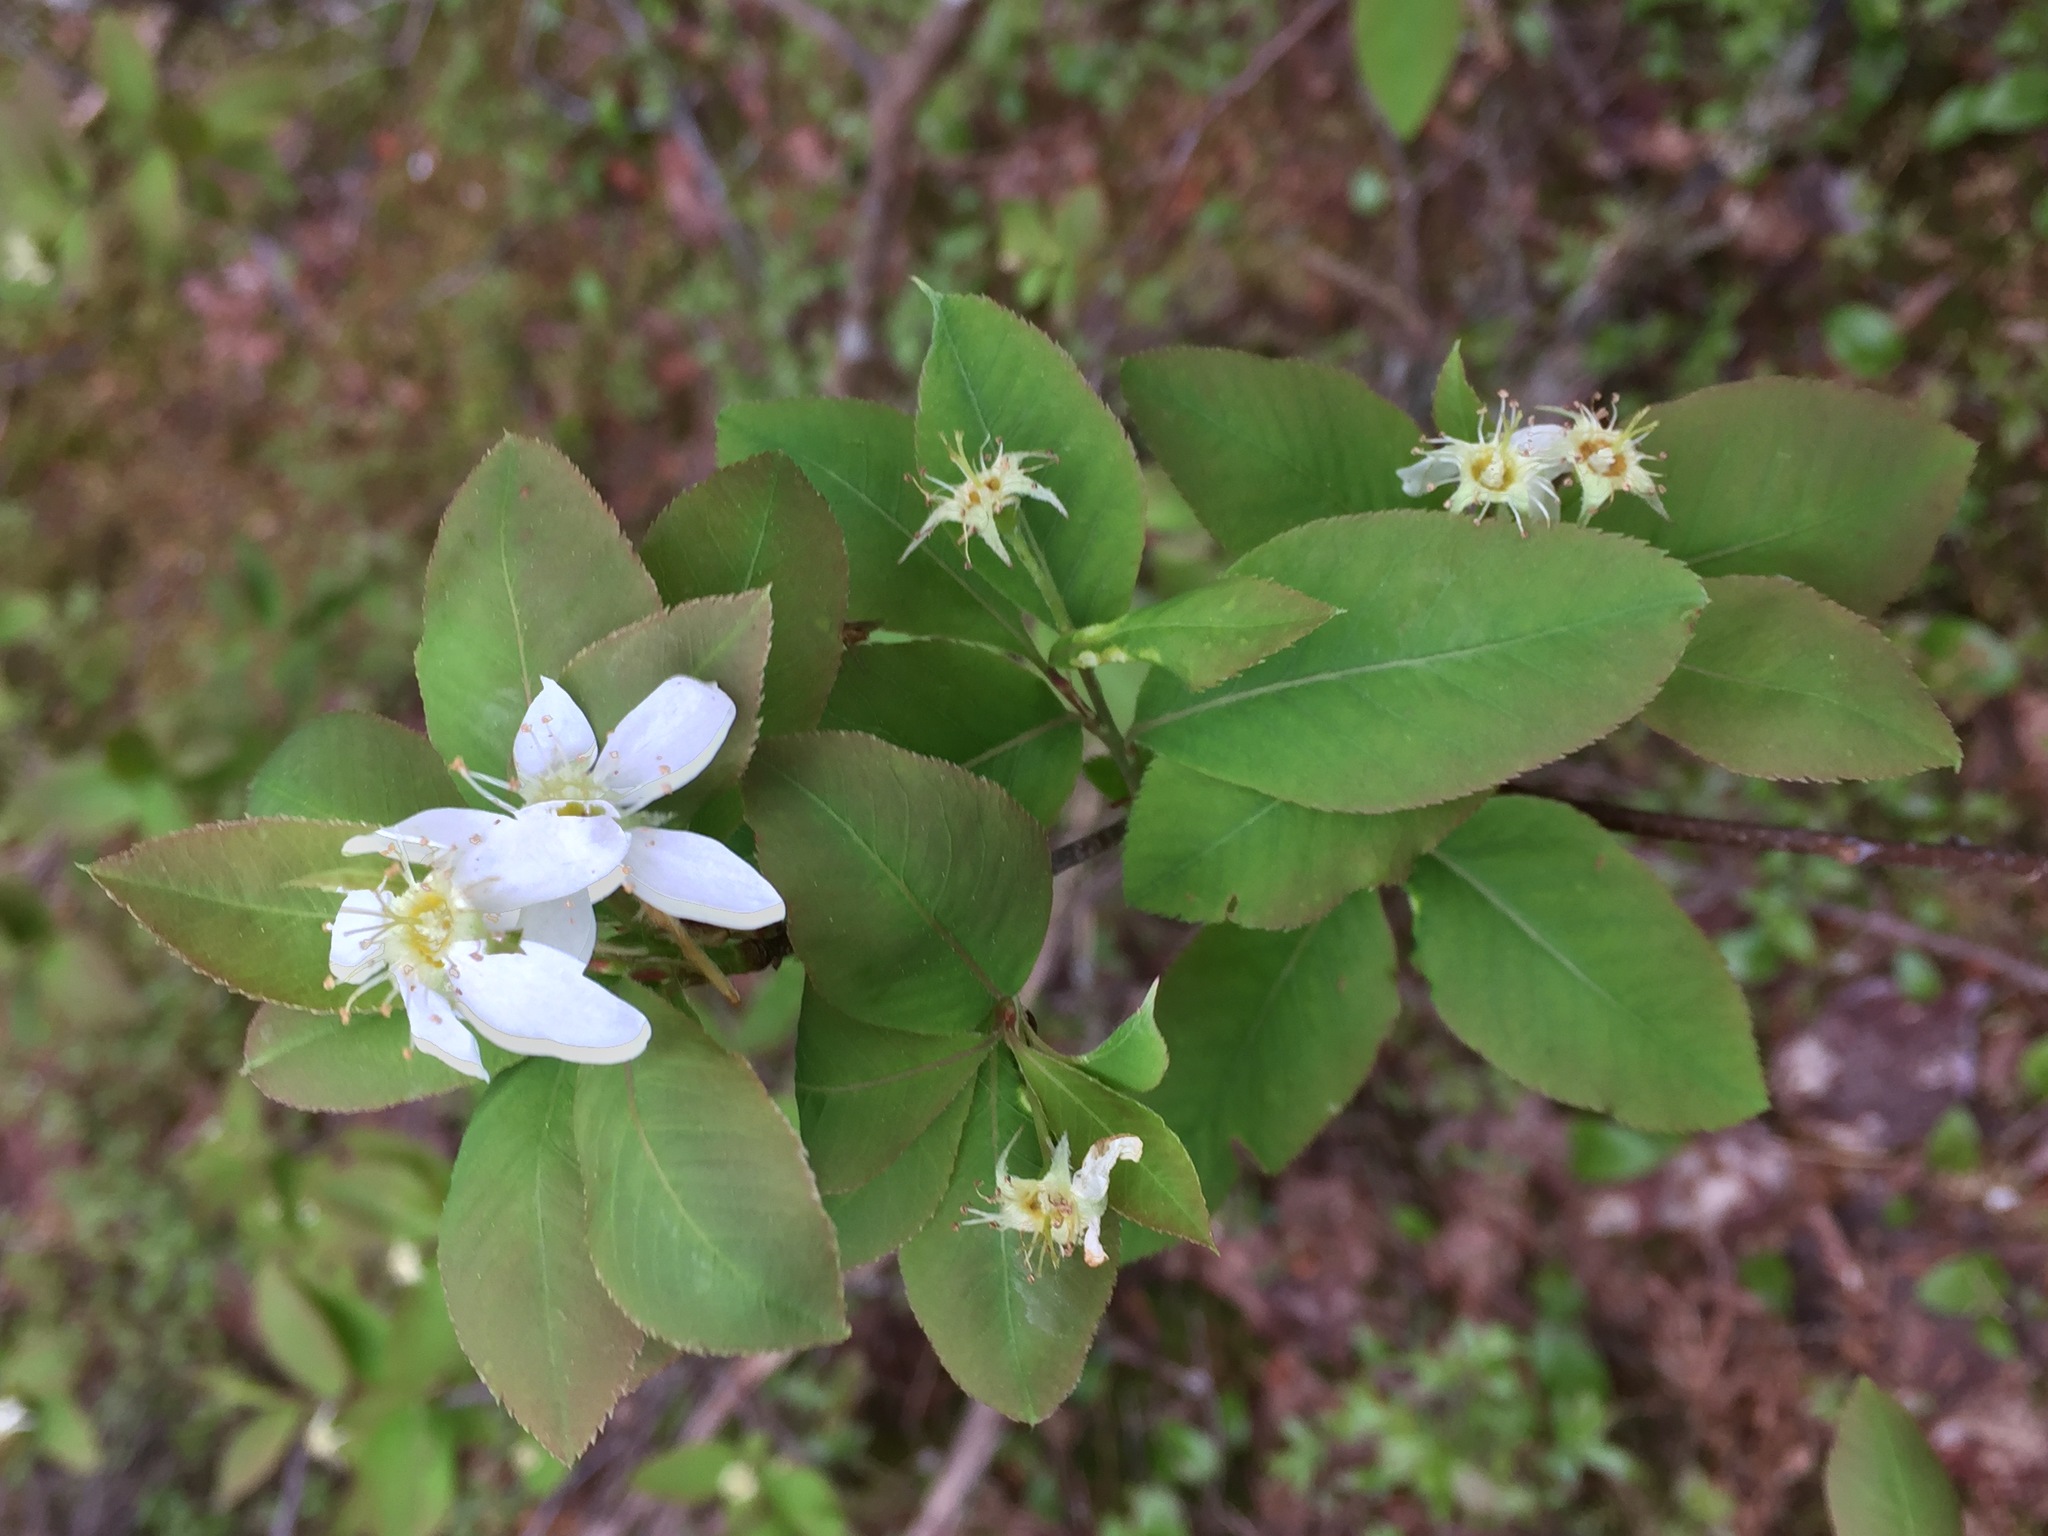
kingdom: Plantae
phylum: Tracheophyta
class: Magnoliopsida
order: Rosales
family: Rosaceae
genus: Amelanchier
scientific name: Amelanchier bartramiana
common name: Mountain serviceberry
